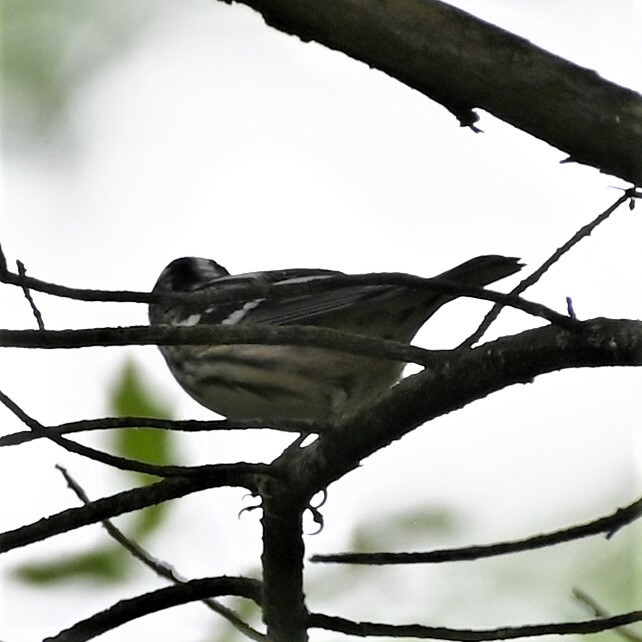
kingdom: Animalia
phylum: Chordata
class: Aves
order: Passeriformes
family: Parulidae
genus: Mniotilta
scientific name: Mniotilta varia
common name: Black-and-white warbler
